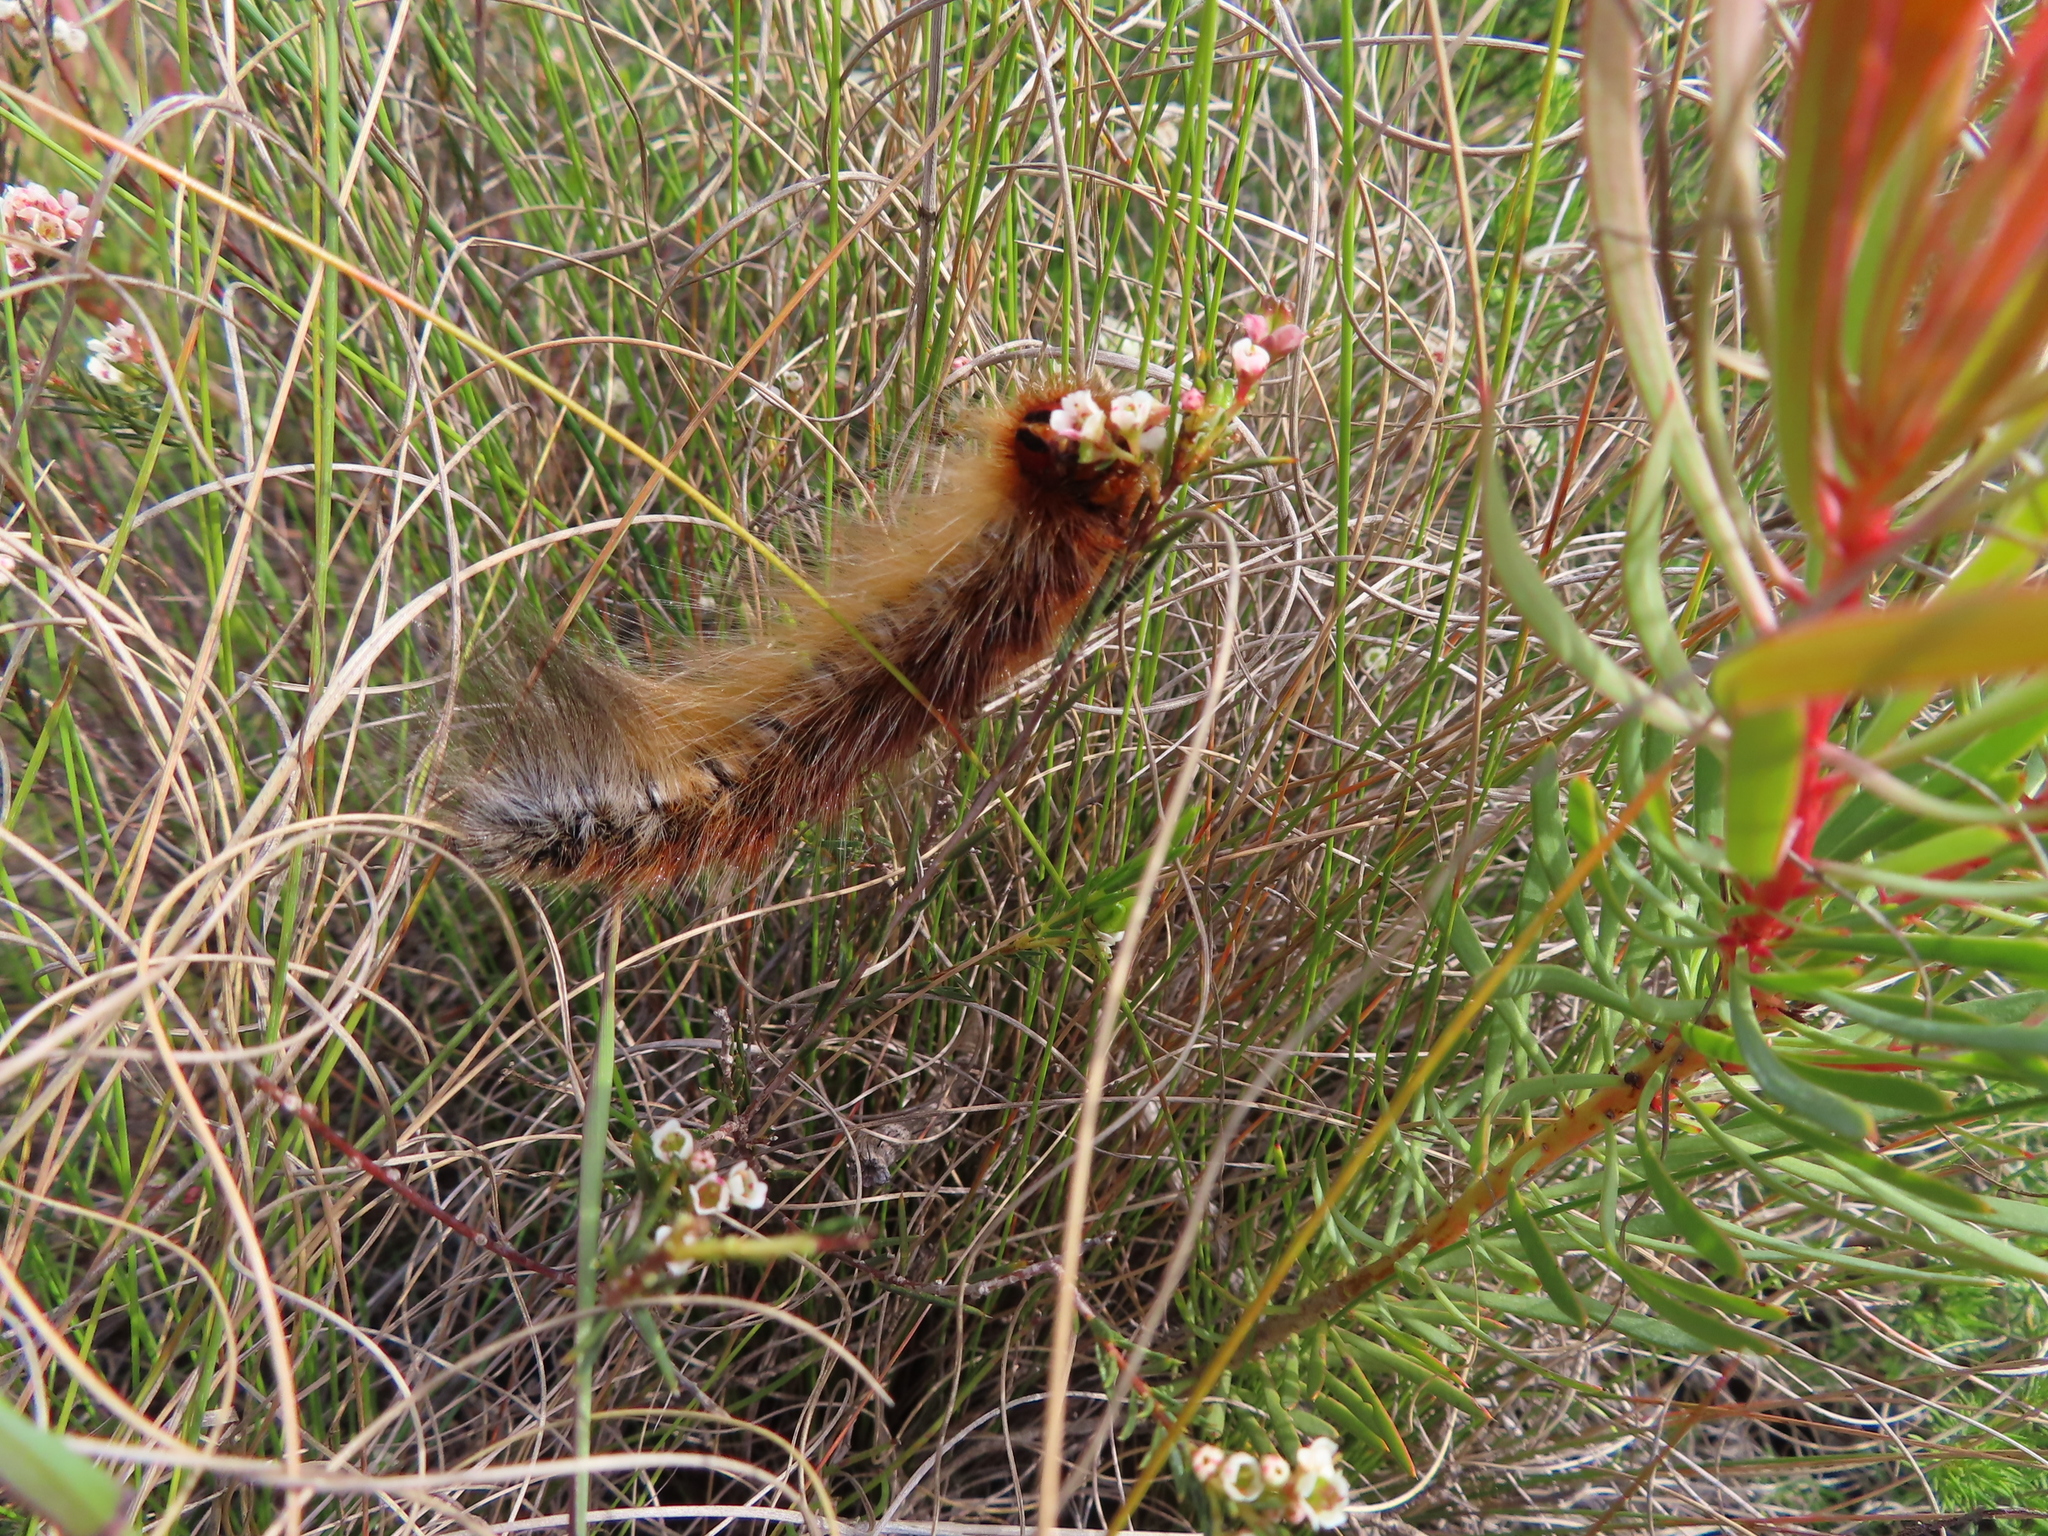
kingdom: Animalia
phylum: Arthropoda
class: Insecta
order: Lepidoptera
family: Lasiocampidae
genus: Mesocelis
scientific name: Mesocelis monticola
